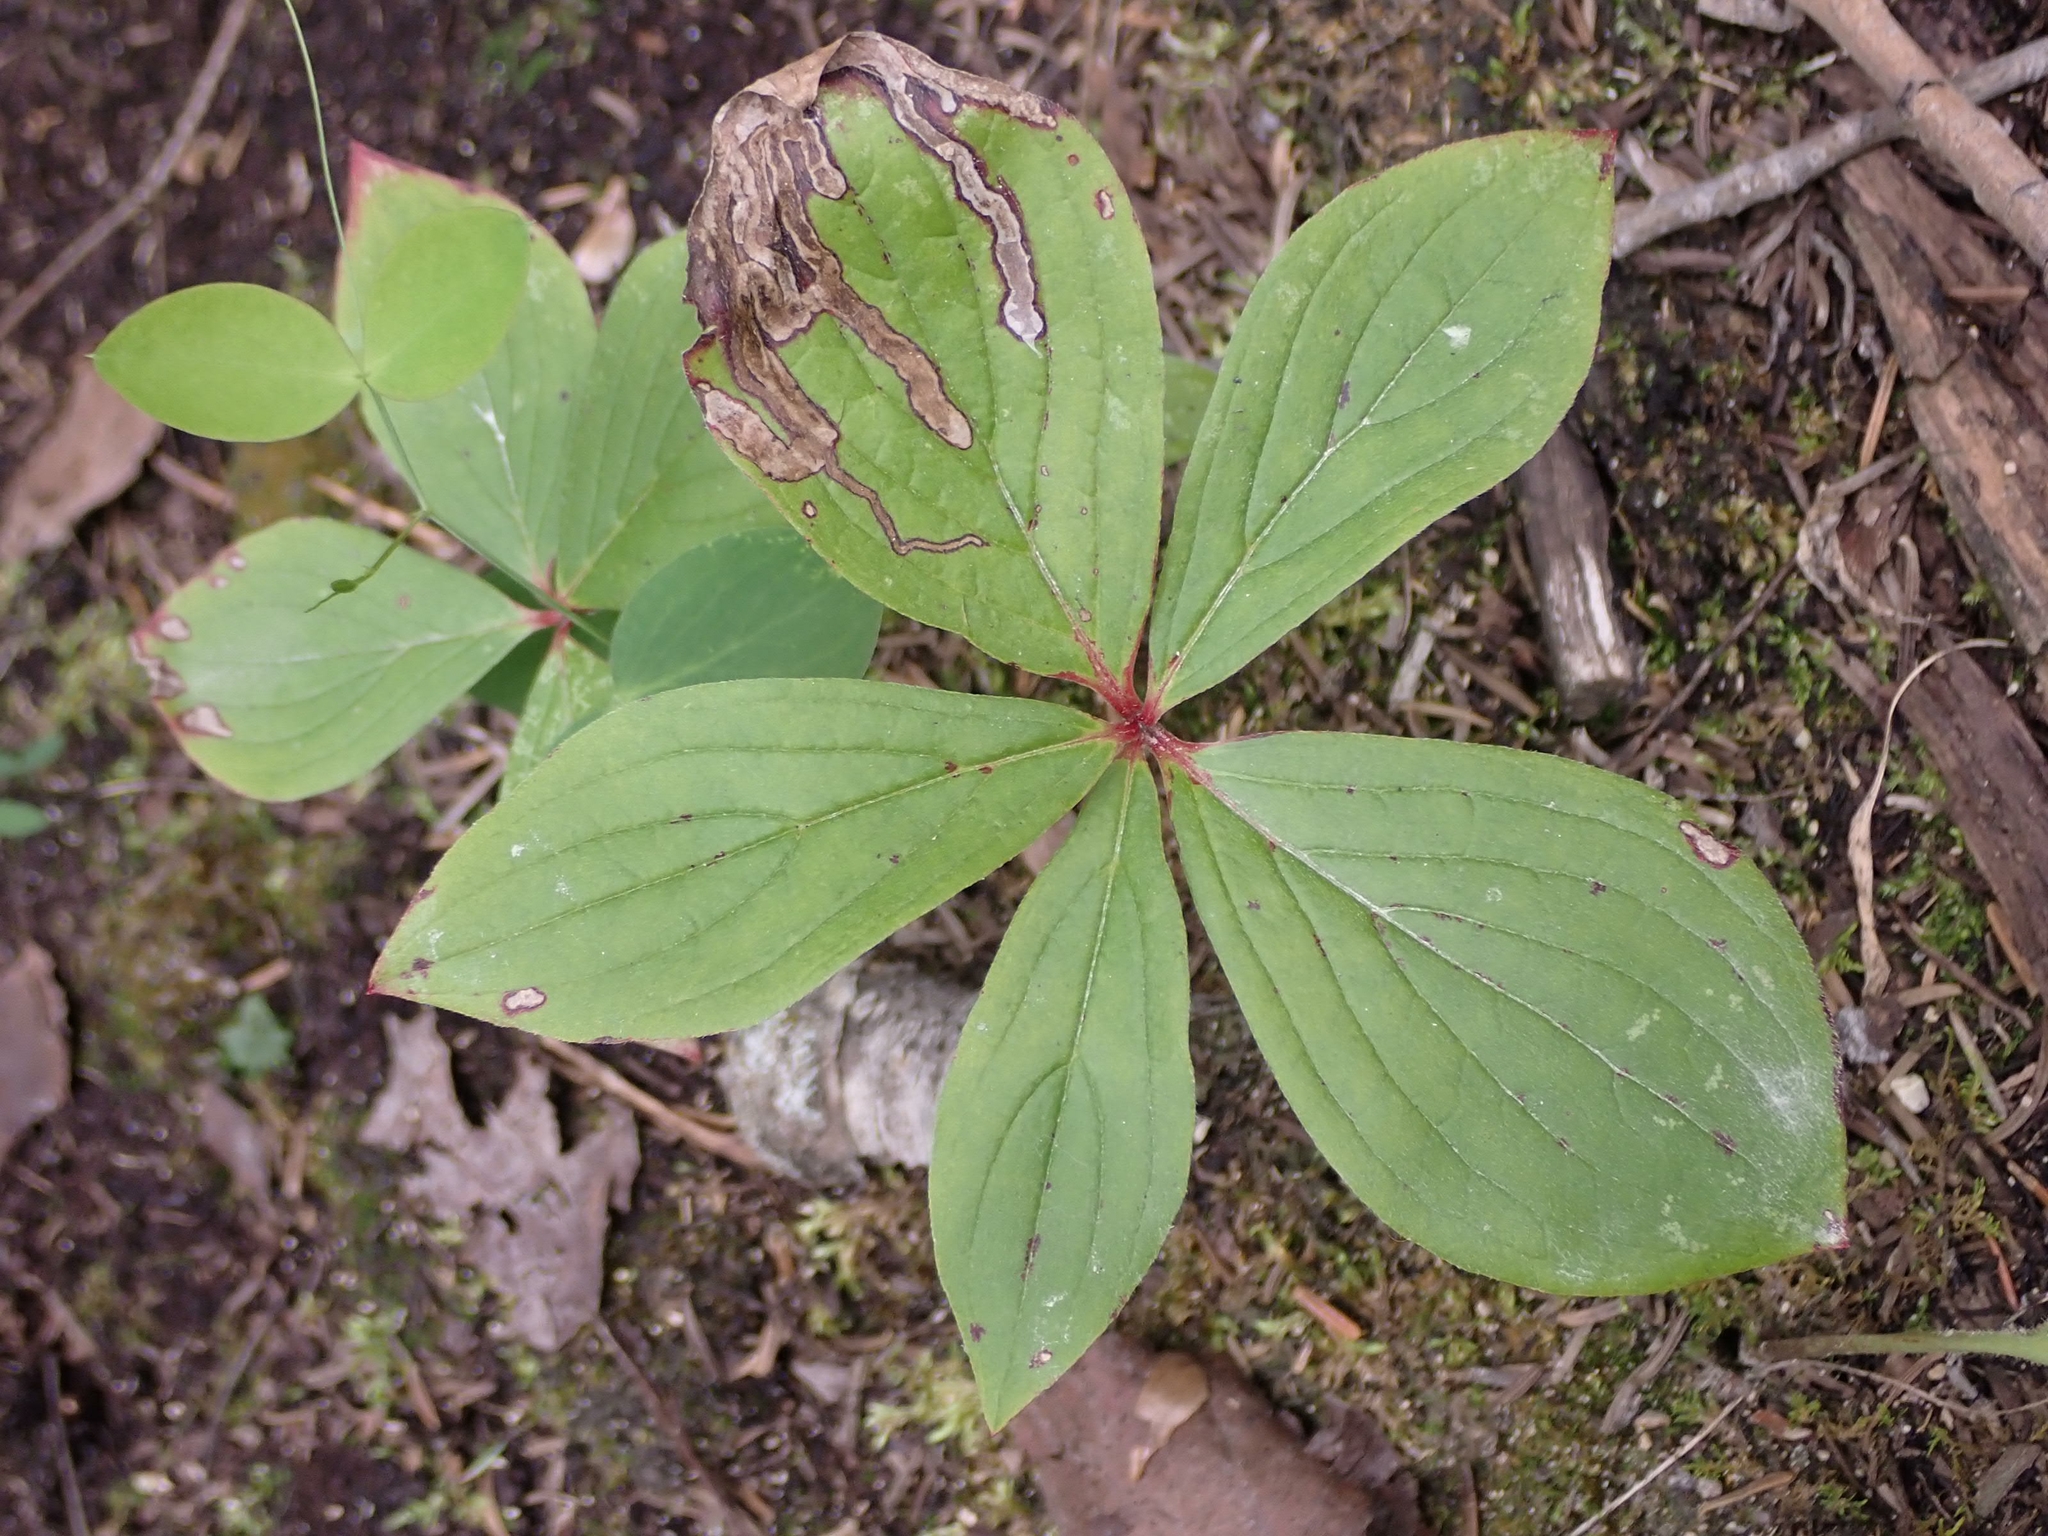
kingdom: Plantae
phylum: Tracheophyta
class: Magnoliopsida
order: Cornales
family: Cornaceae
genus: Cornus
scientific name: Cornus canadensis
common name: Creeping dogwood
